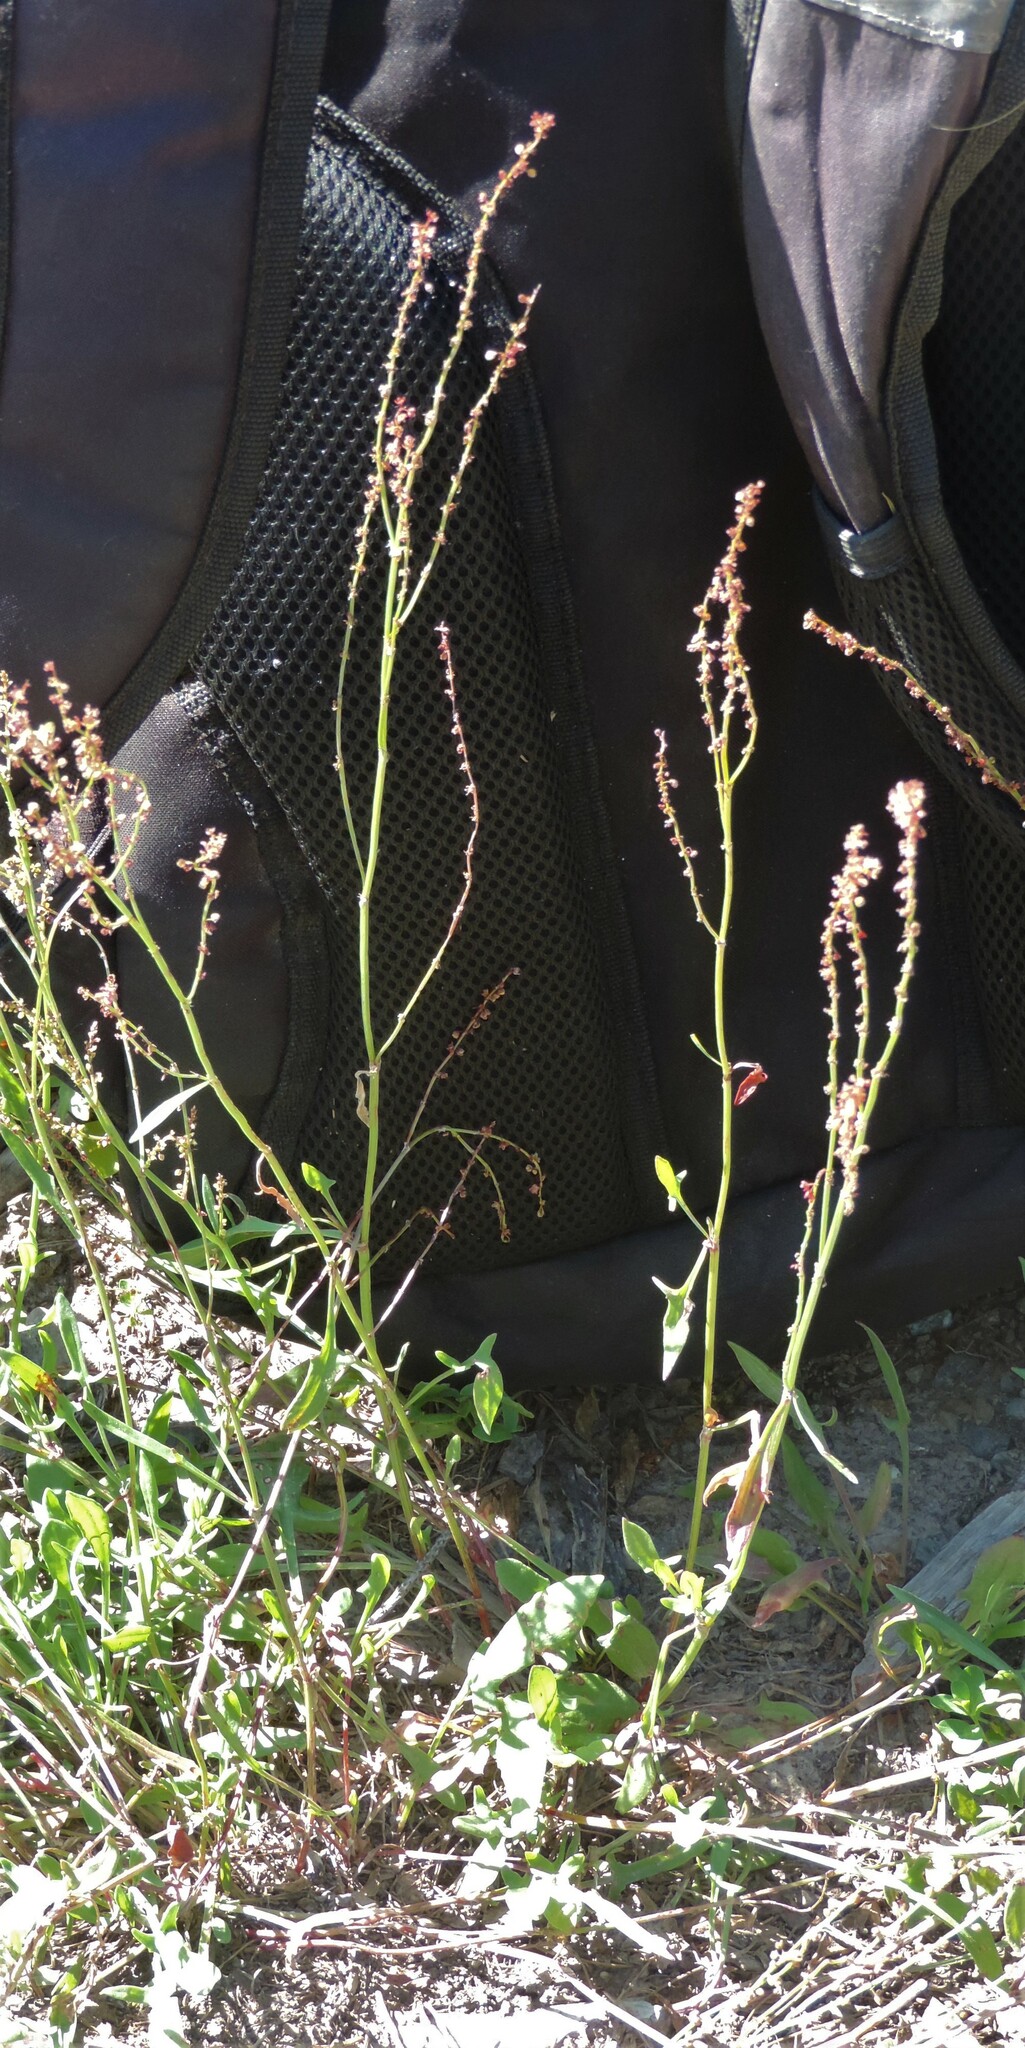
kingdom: Plantae
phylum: Tracheophyta
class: Magnoliopsida
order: Caryophyllales
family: Polygonaceae
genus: Rumex
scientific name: Rumex acetosella
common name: Common sheep sorrel
